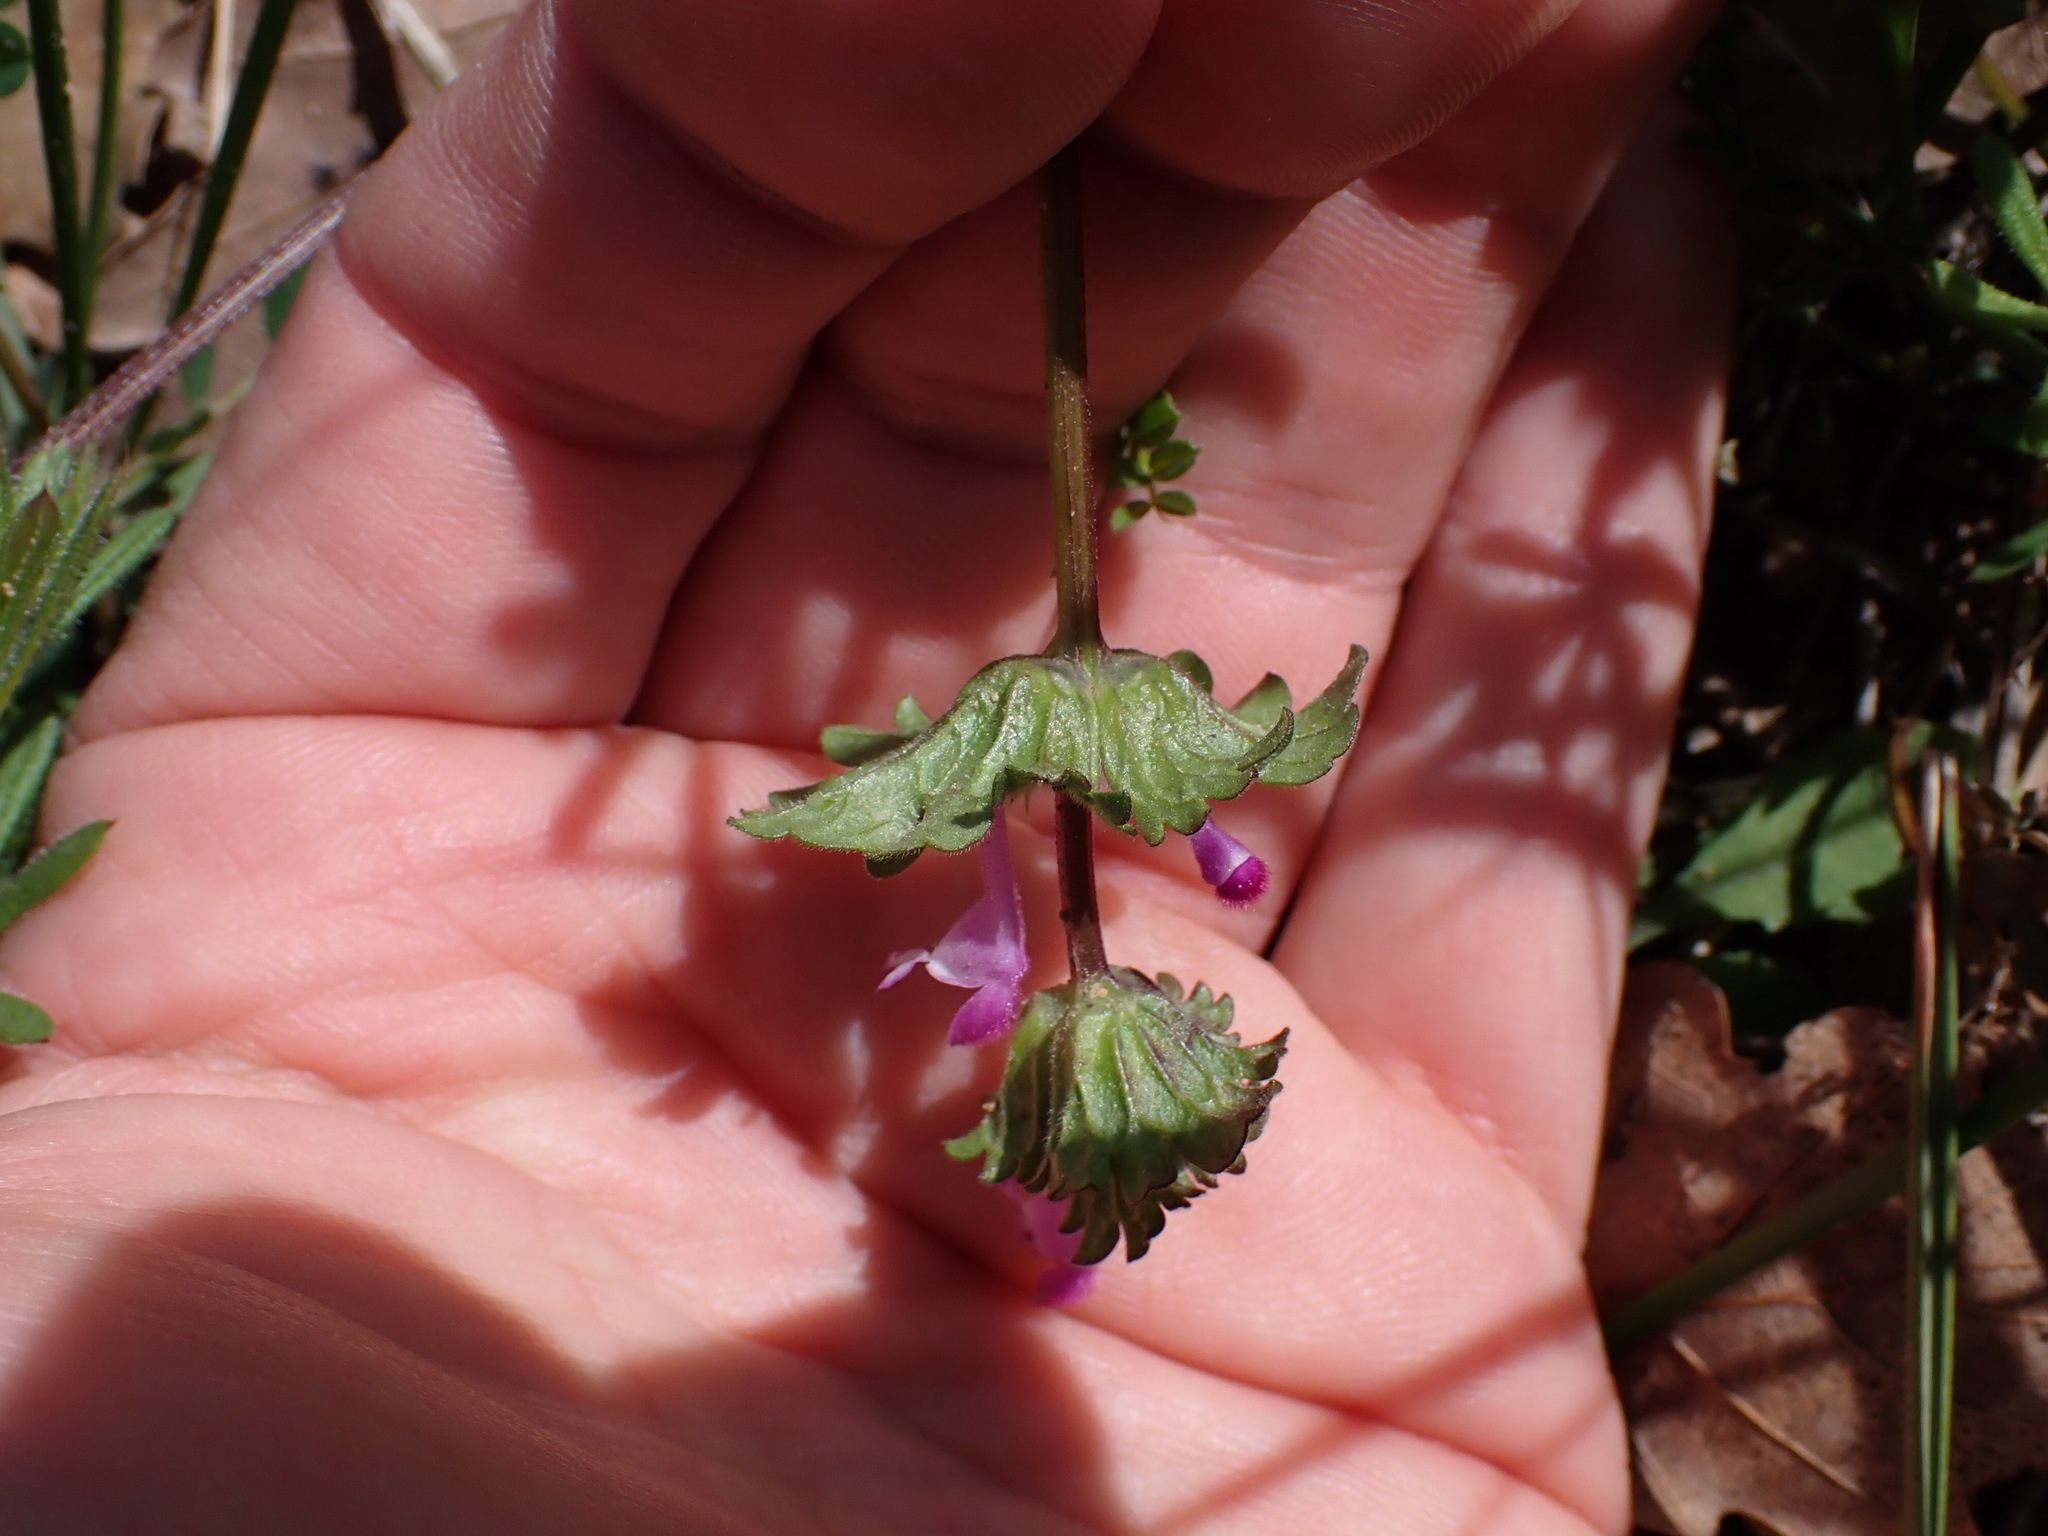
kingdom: Plantae
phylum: Tracheophyta
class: Magnoliopsida
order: Lamiales
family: Lamiaceae
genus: Lamium
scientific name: Lamium amplexicaule
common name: Henbit dead-nettle
